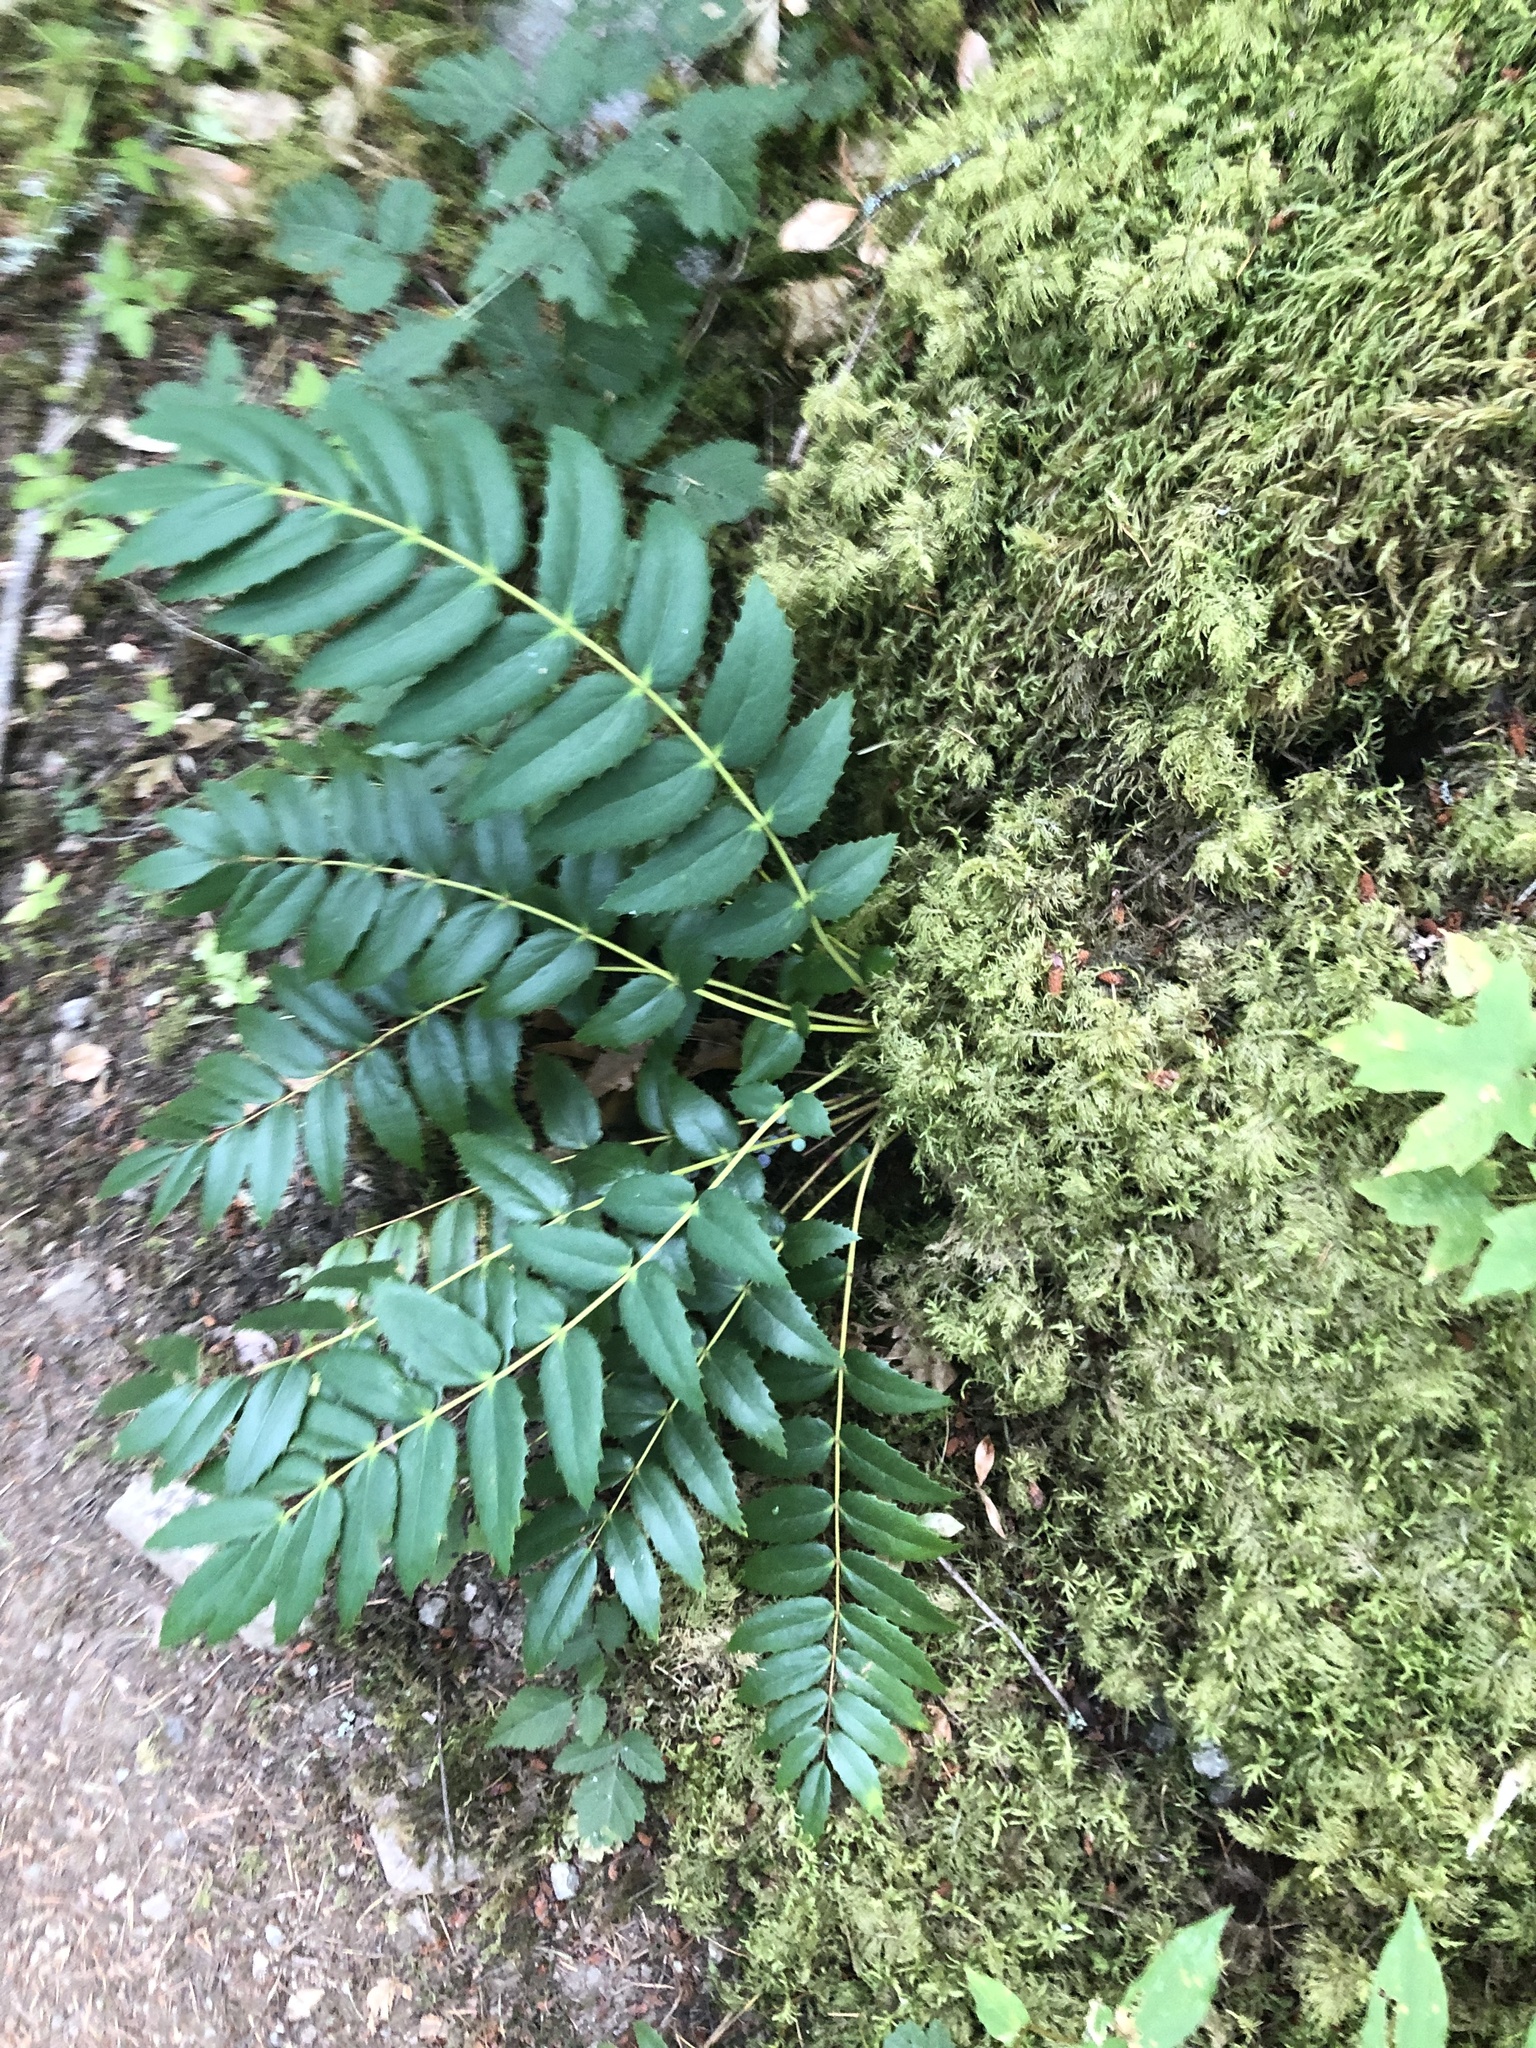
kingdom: Plantae
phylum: Tracheophyta
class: Magnoliopsida
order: Ranunculales
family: Berberidaceae
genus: Mahonia
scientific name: Mahonia nervosa
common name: Cascade oregon-grape
